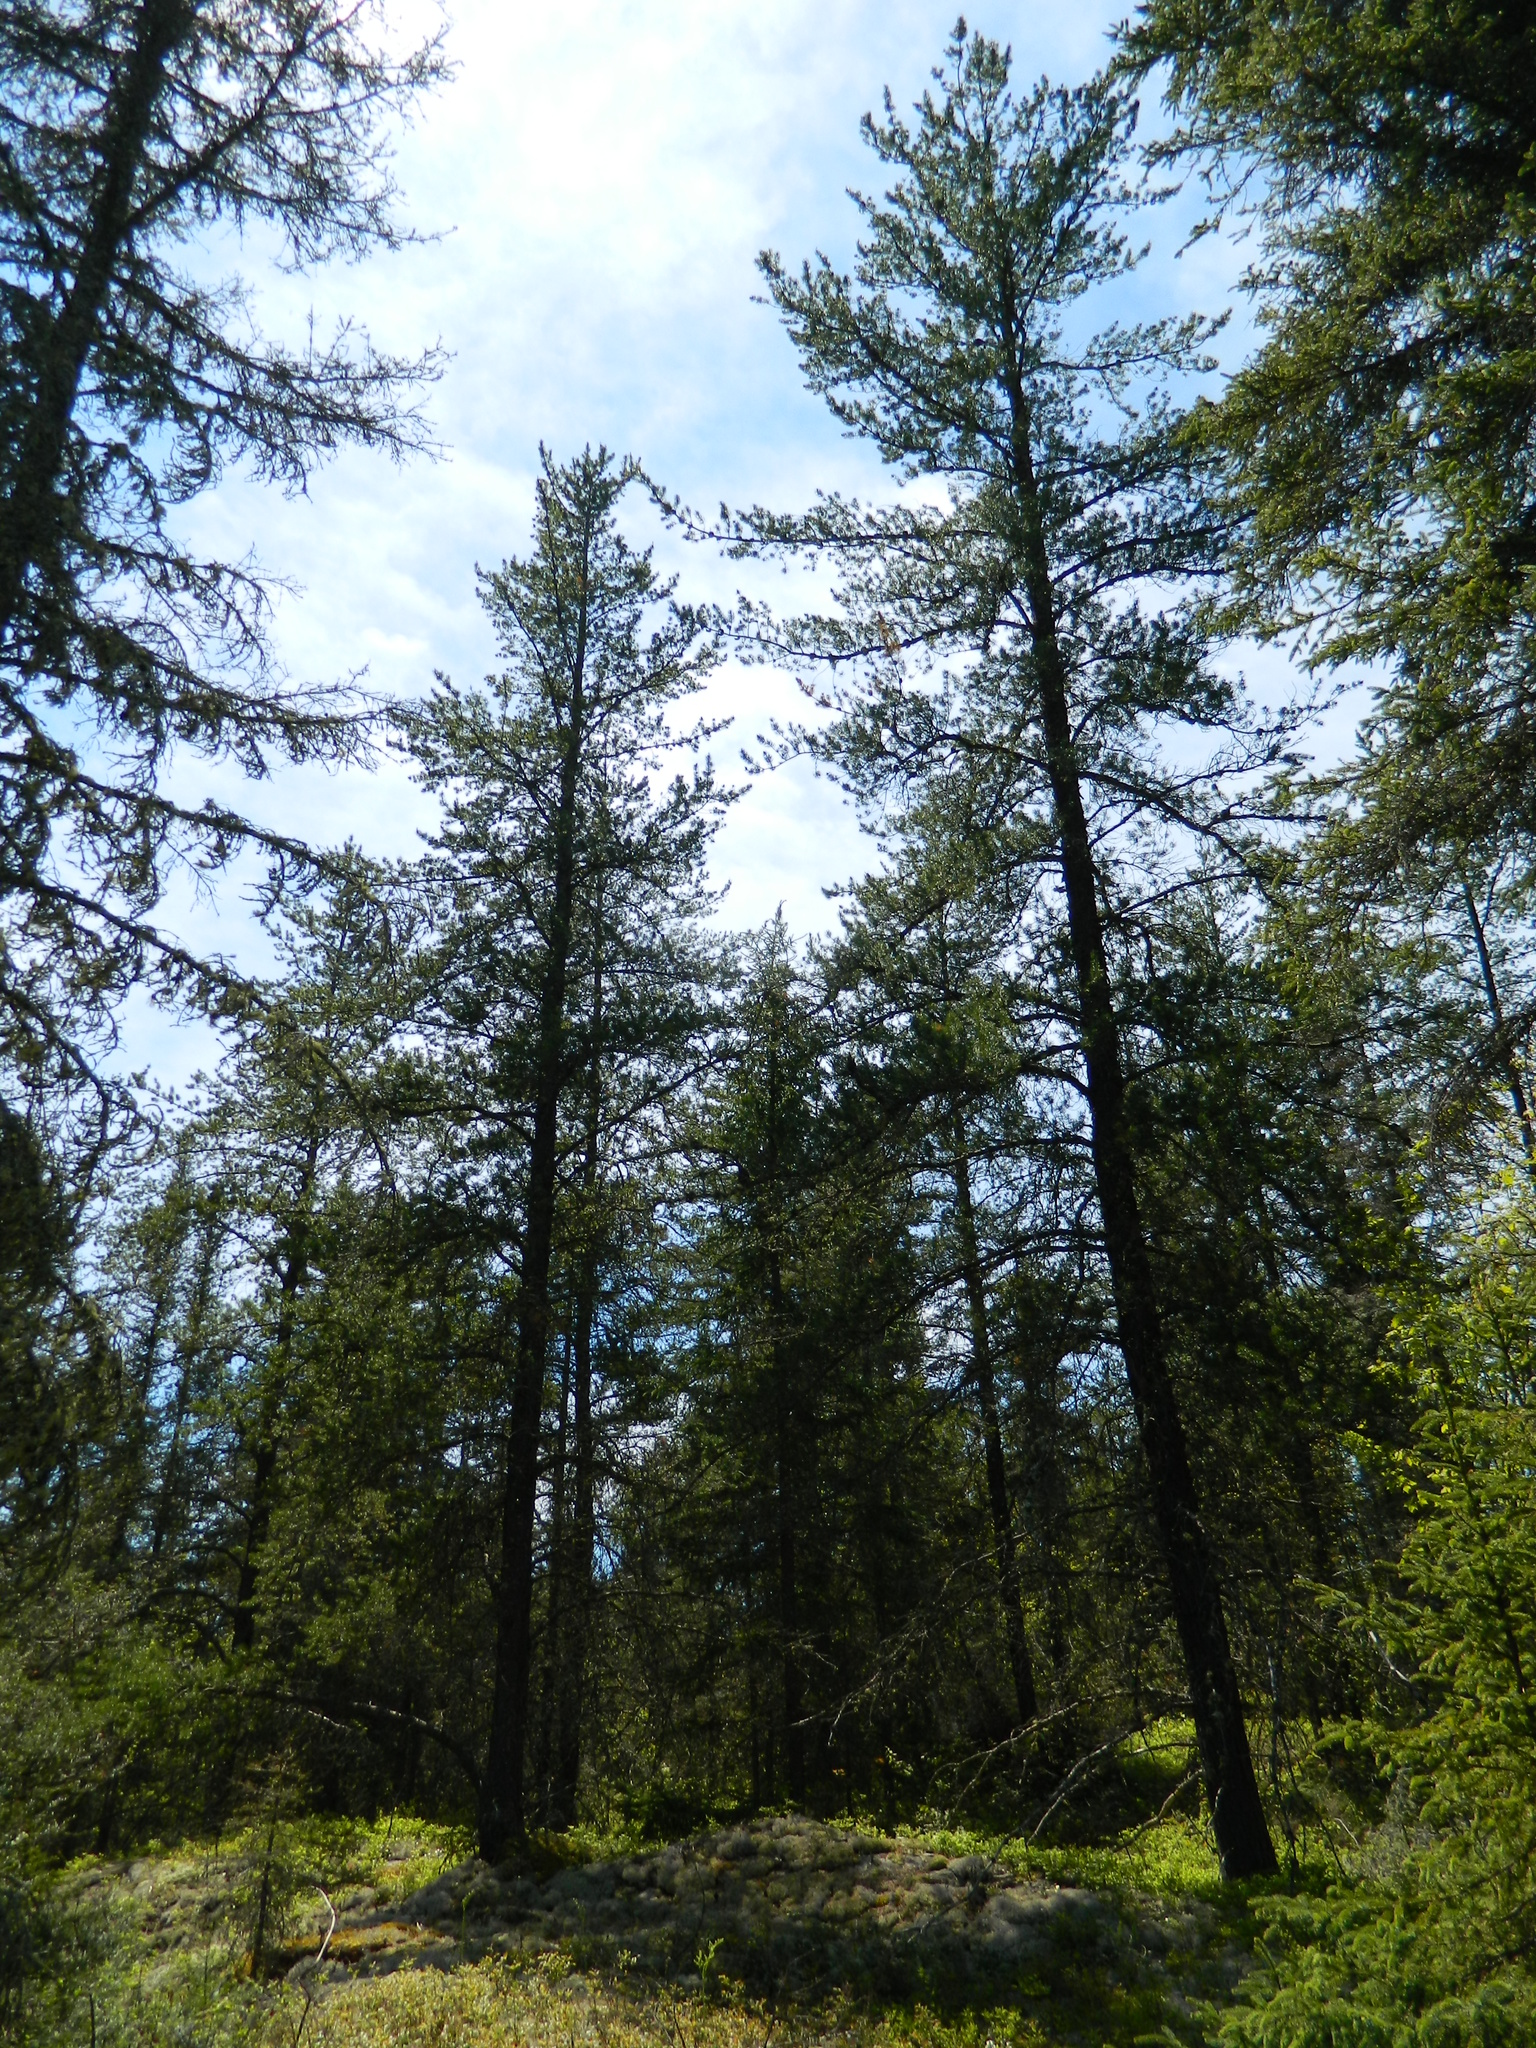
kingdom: Plantae
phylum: Tracheophyta
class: Pinopsida
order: Pinales
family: Pinaceae
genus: Pinus
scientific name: Pinus banksiana
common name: Jack pine
